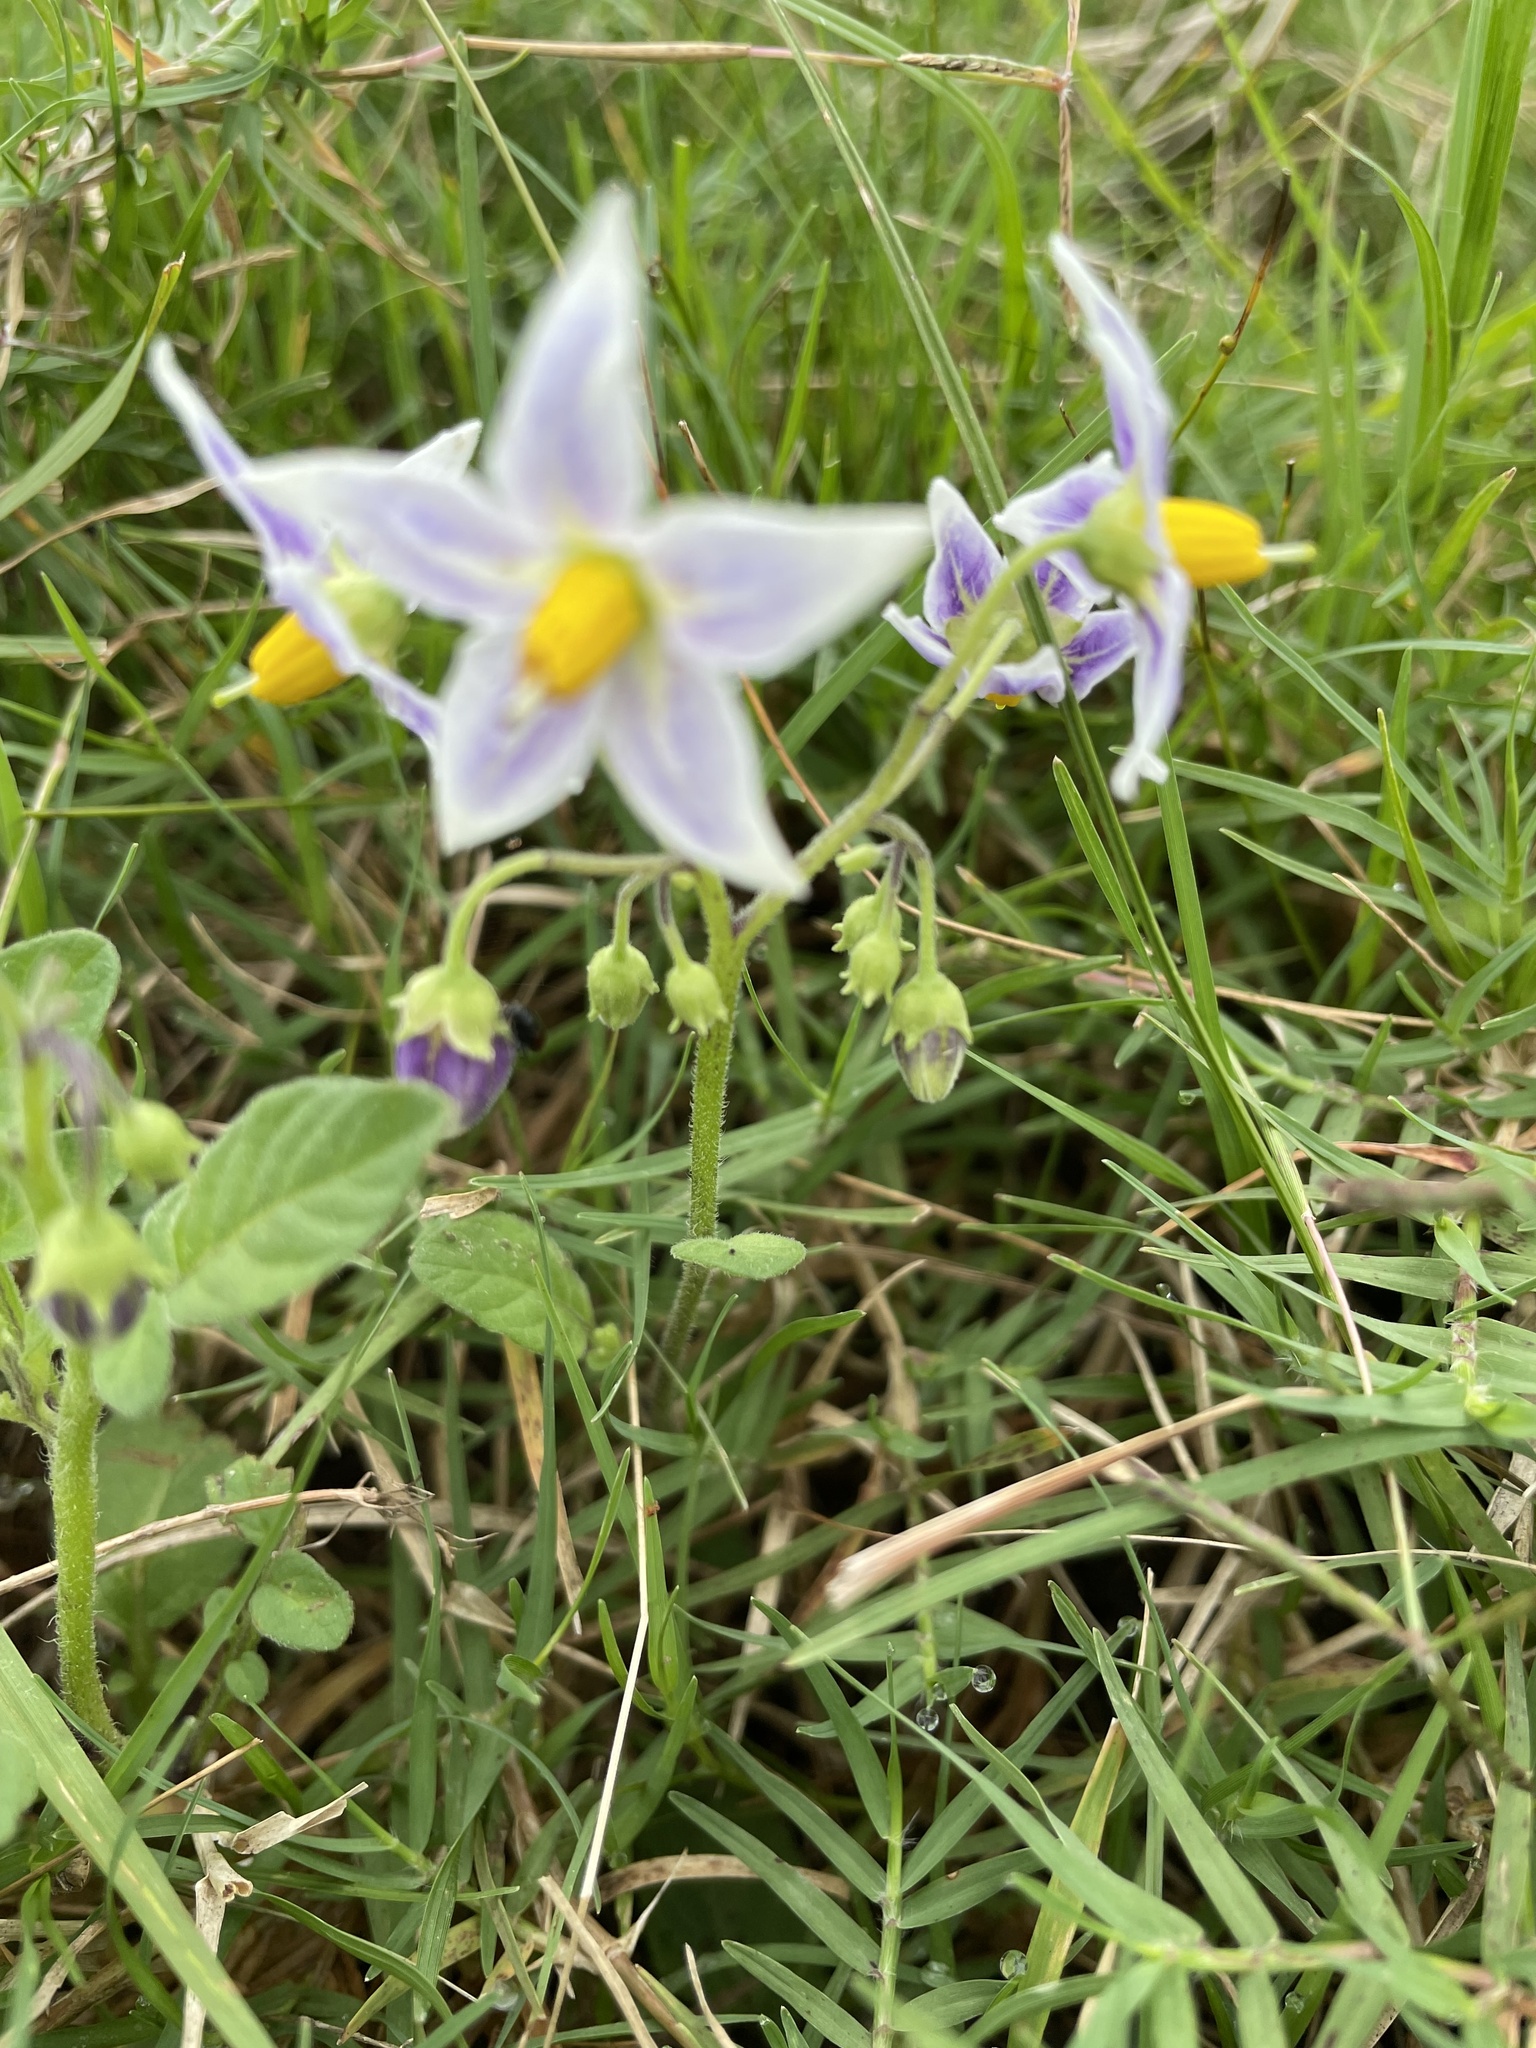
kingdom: Plantae
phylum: Tracheophyta
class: Magnoliopsida
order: Solanales
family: Solanaceae
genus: Solanum
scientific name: Solanum commersonii
